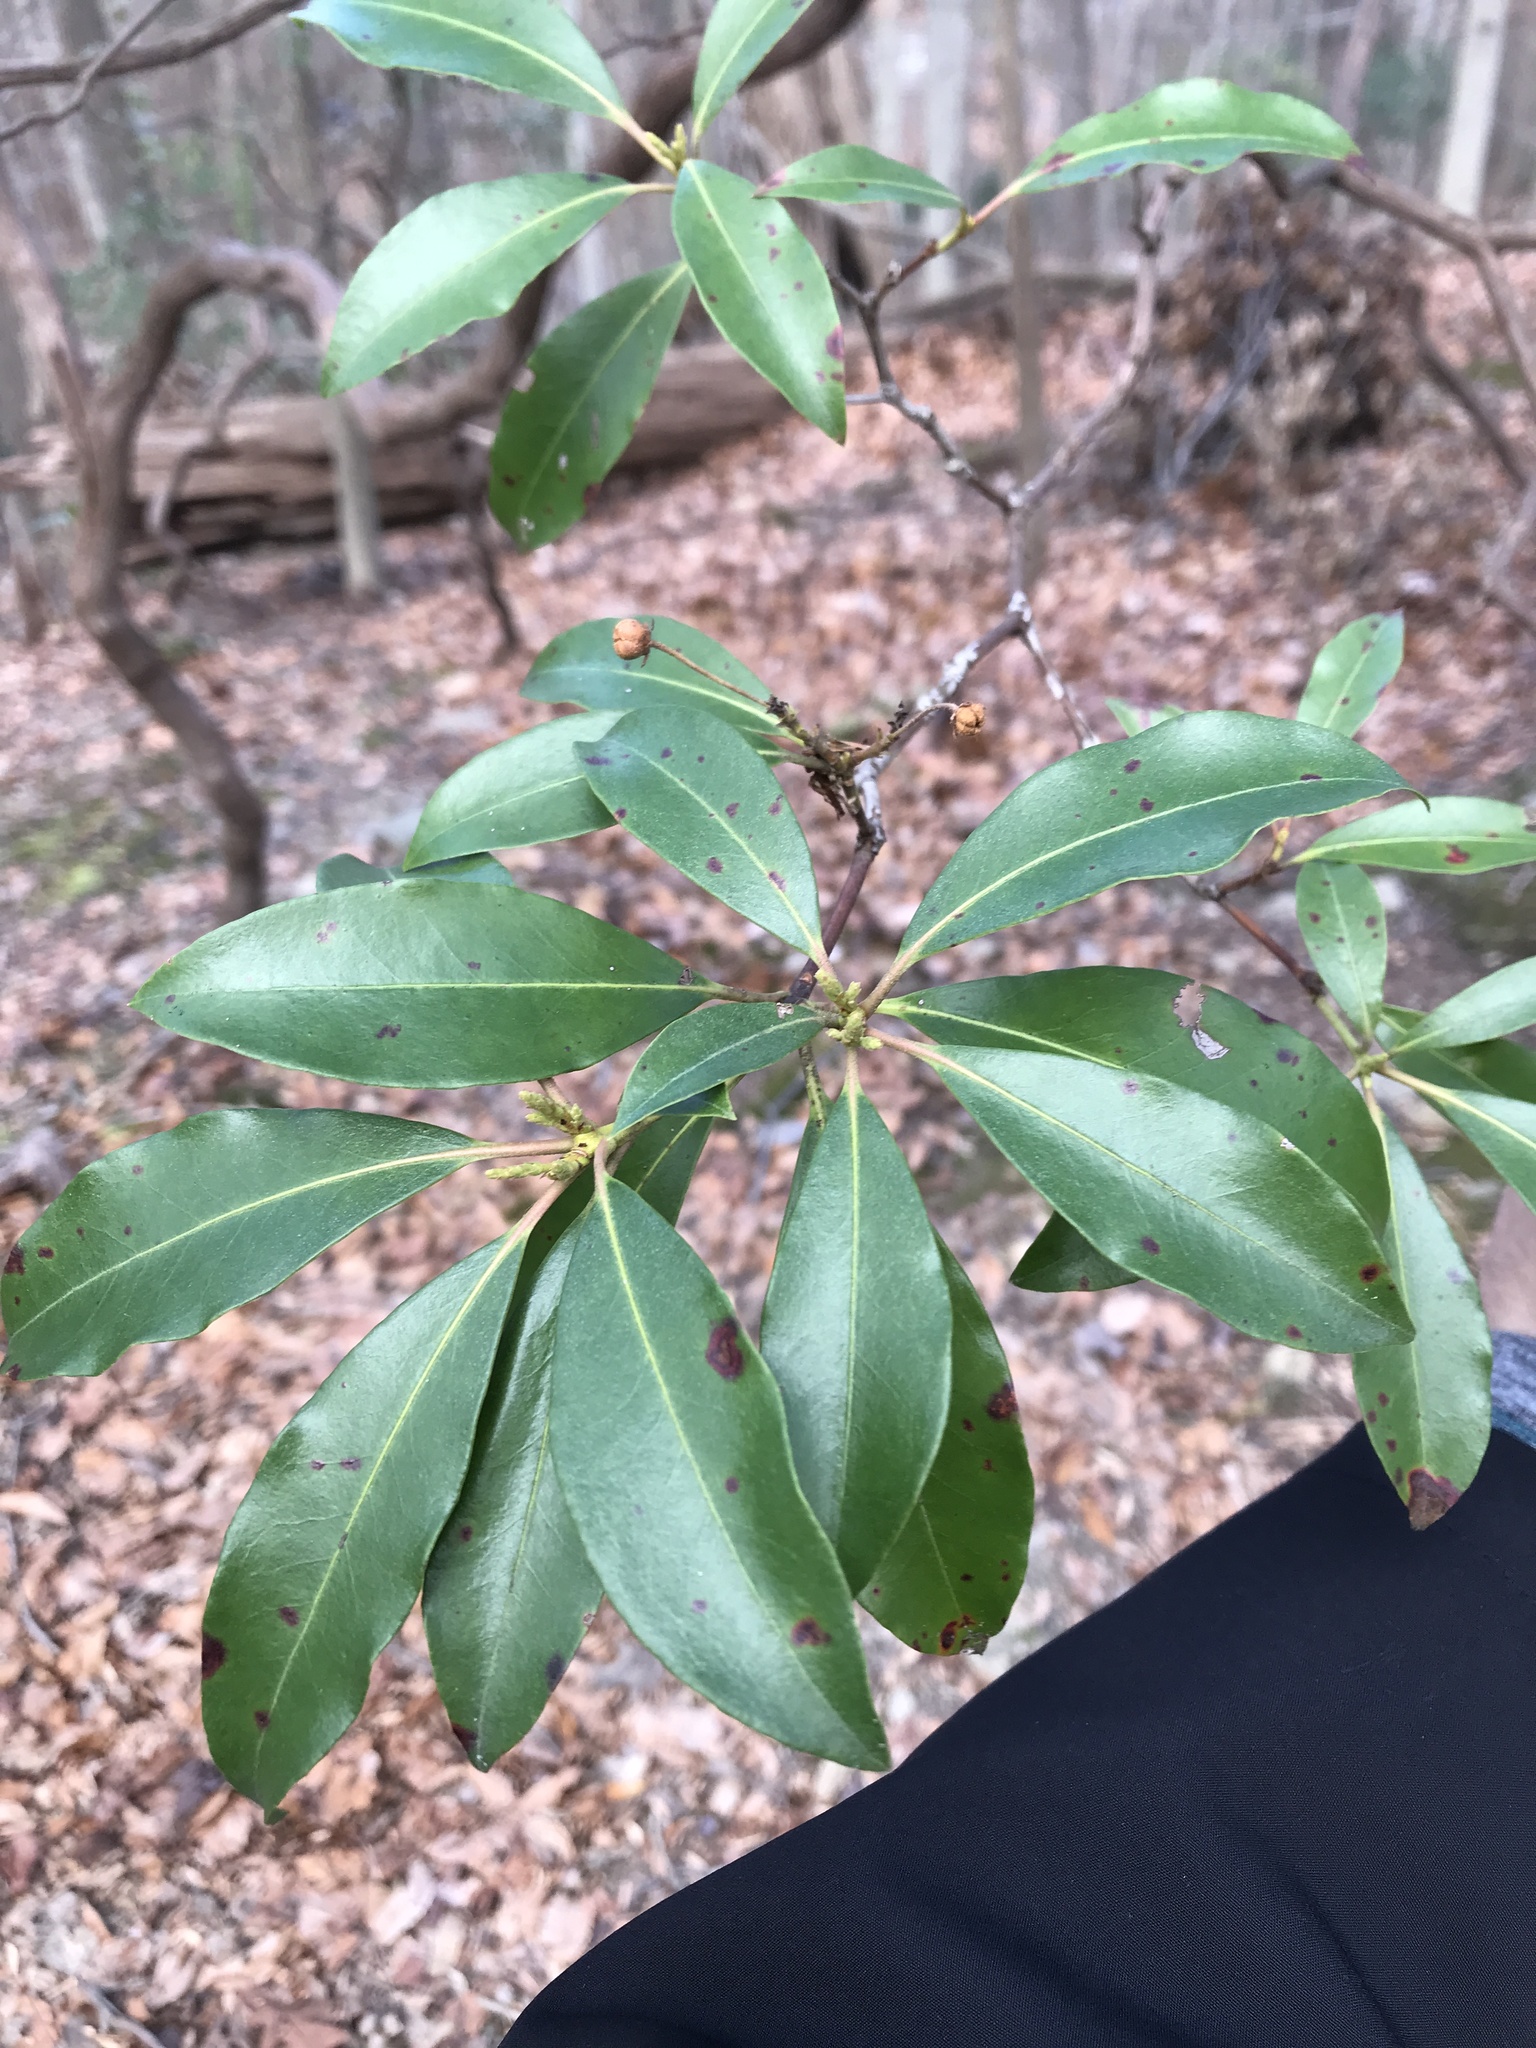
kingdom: Plantae
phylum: Tracheophyta
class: Magnoliopsida
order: Ericales
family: Ericaceae
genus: Kalmia
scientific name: Kalmia latifolia
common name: Mountain-laurel
